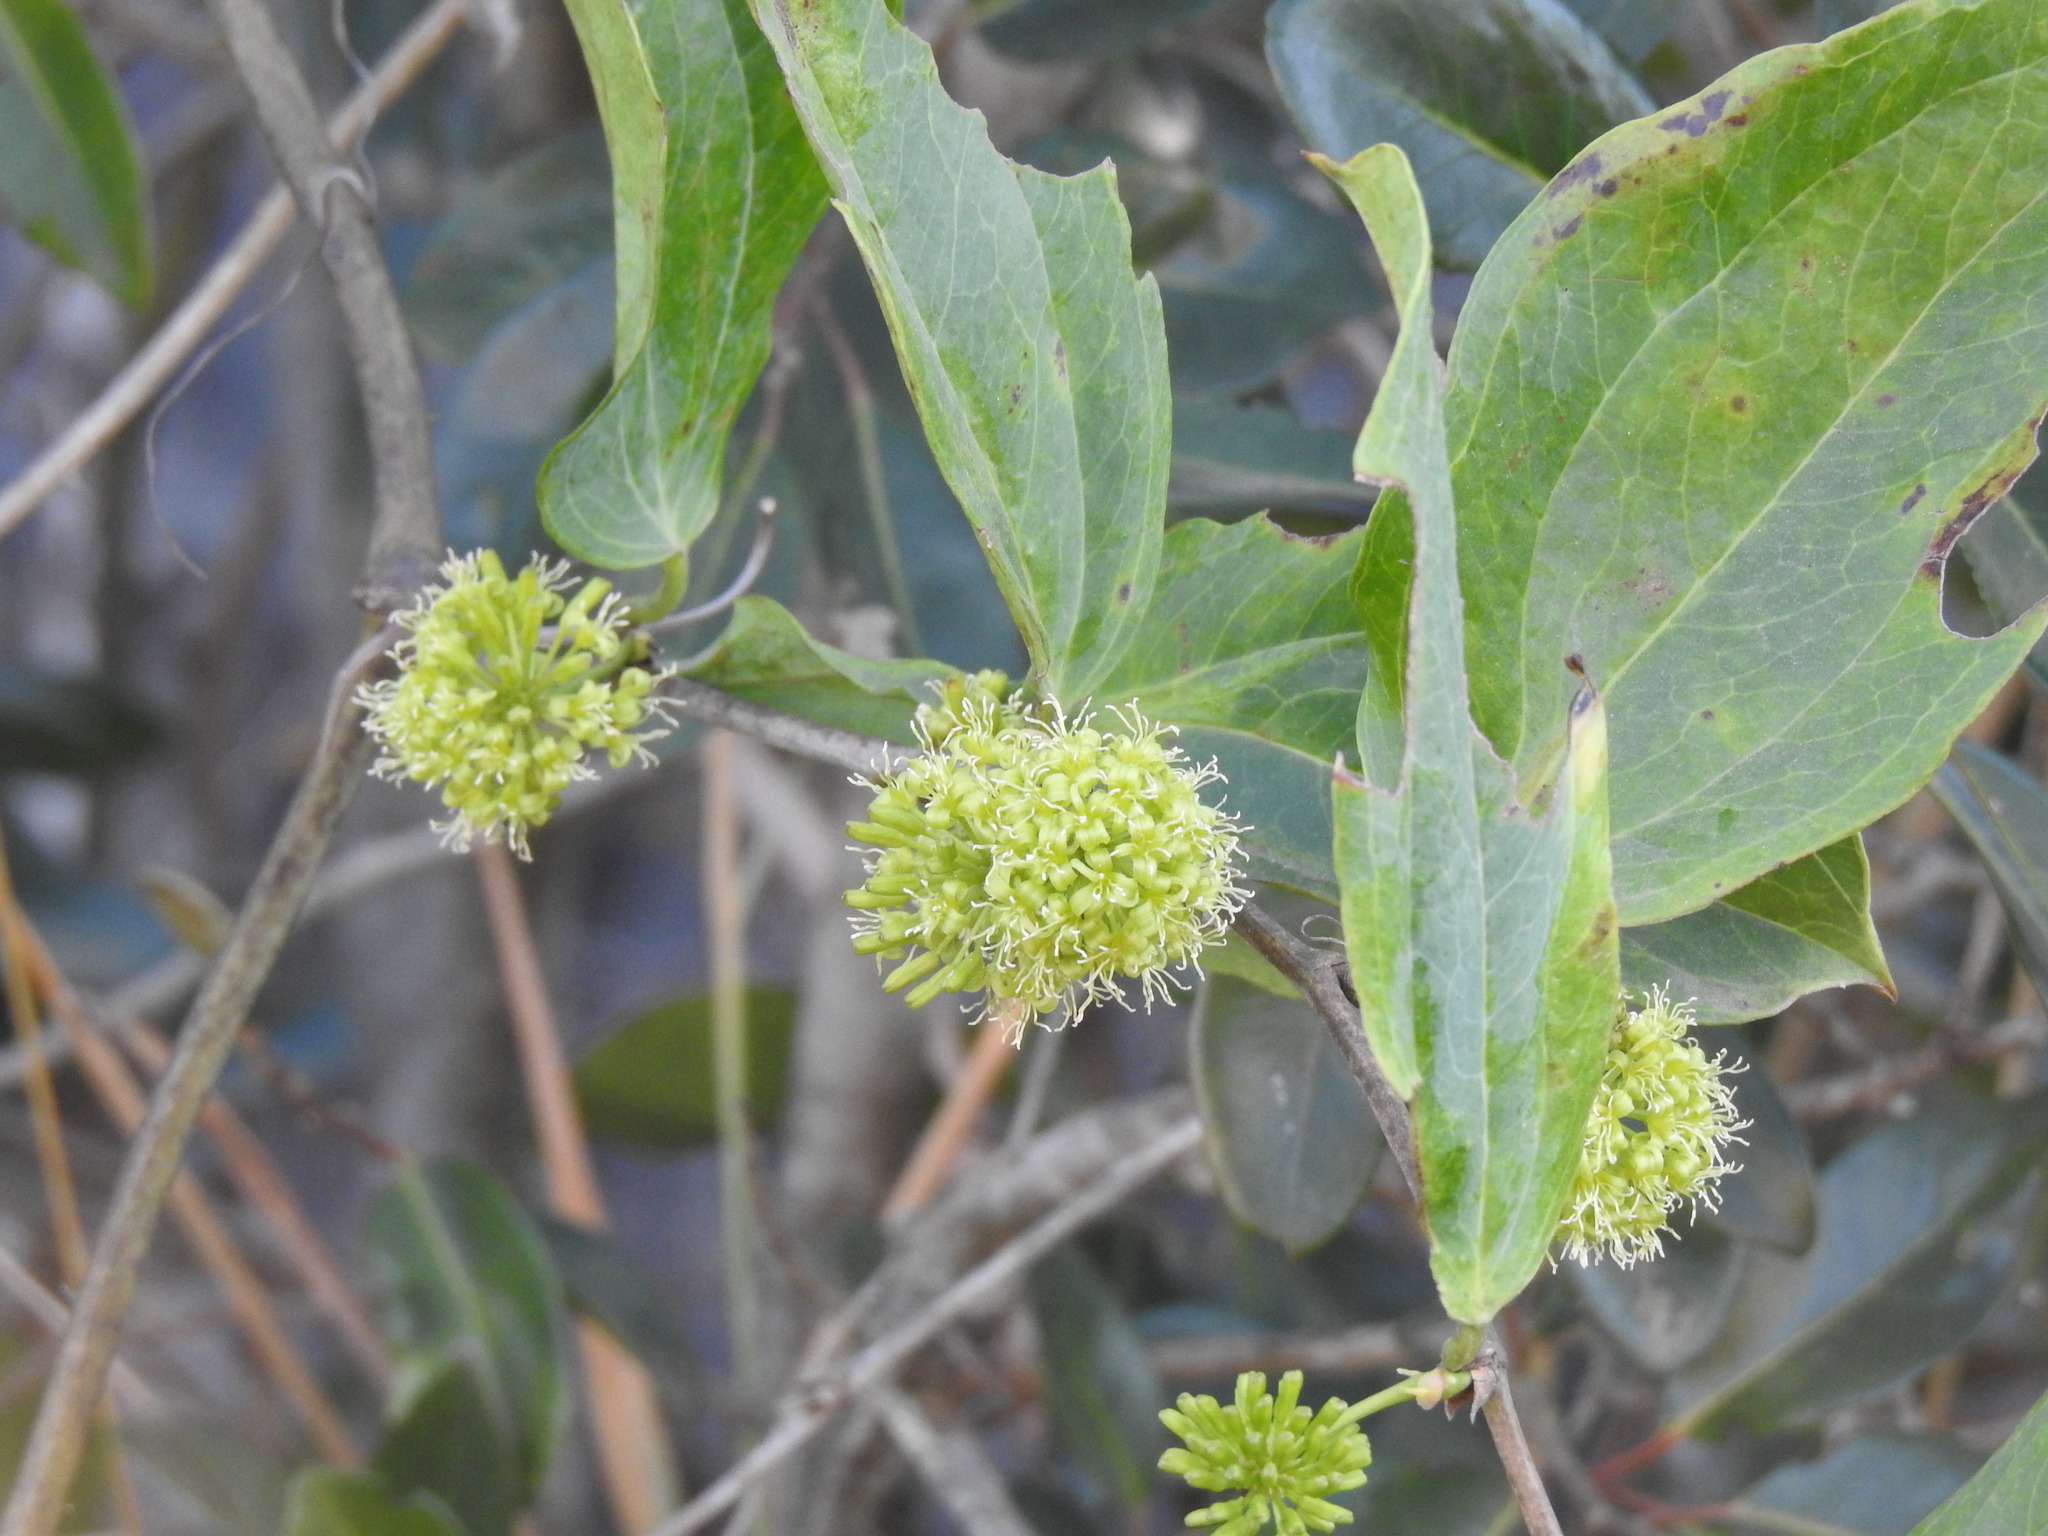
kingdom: Plantae
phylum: Tracheophyta
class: Liliopsida
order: Liliales
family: Smilacaceae
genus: Smilax
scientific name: Smilax anceps
